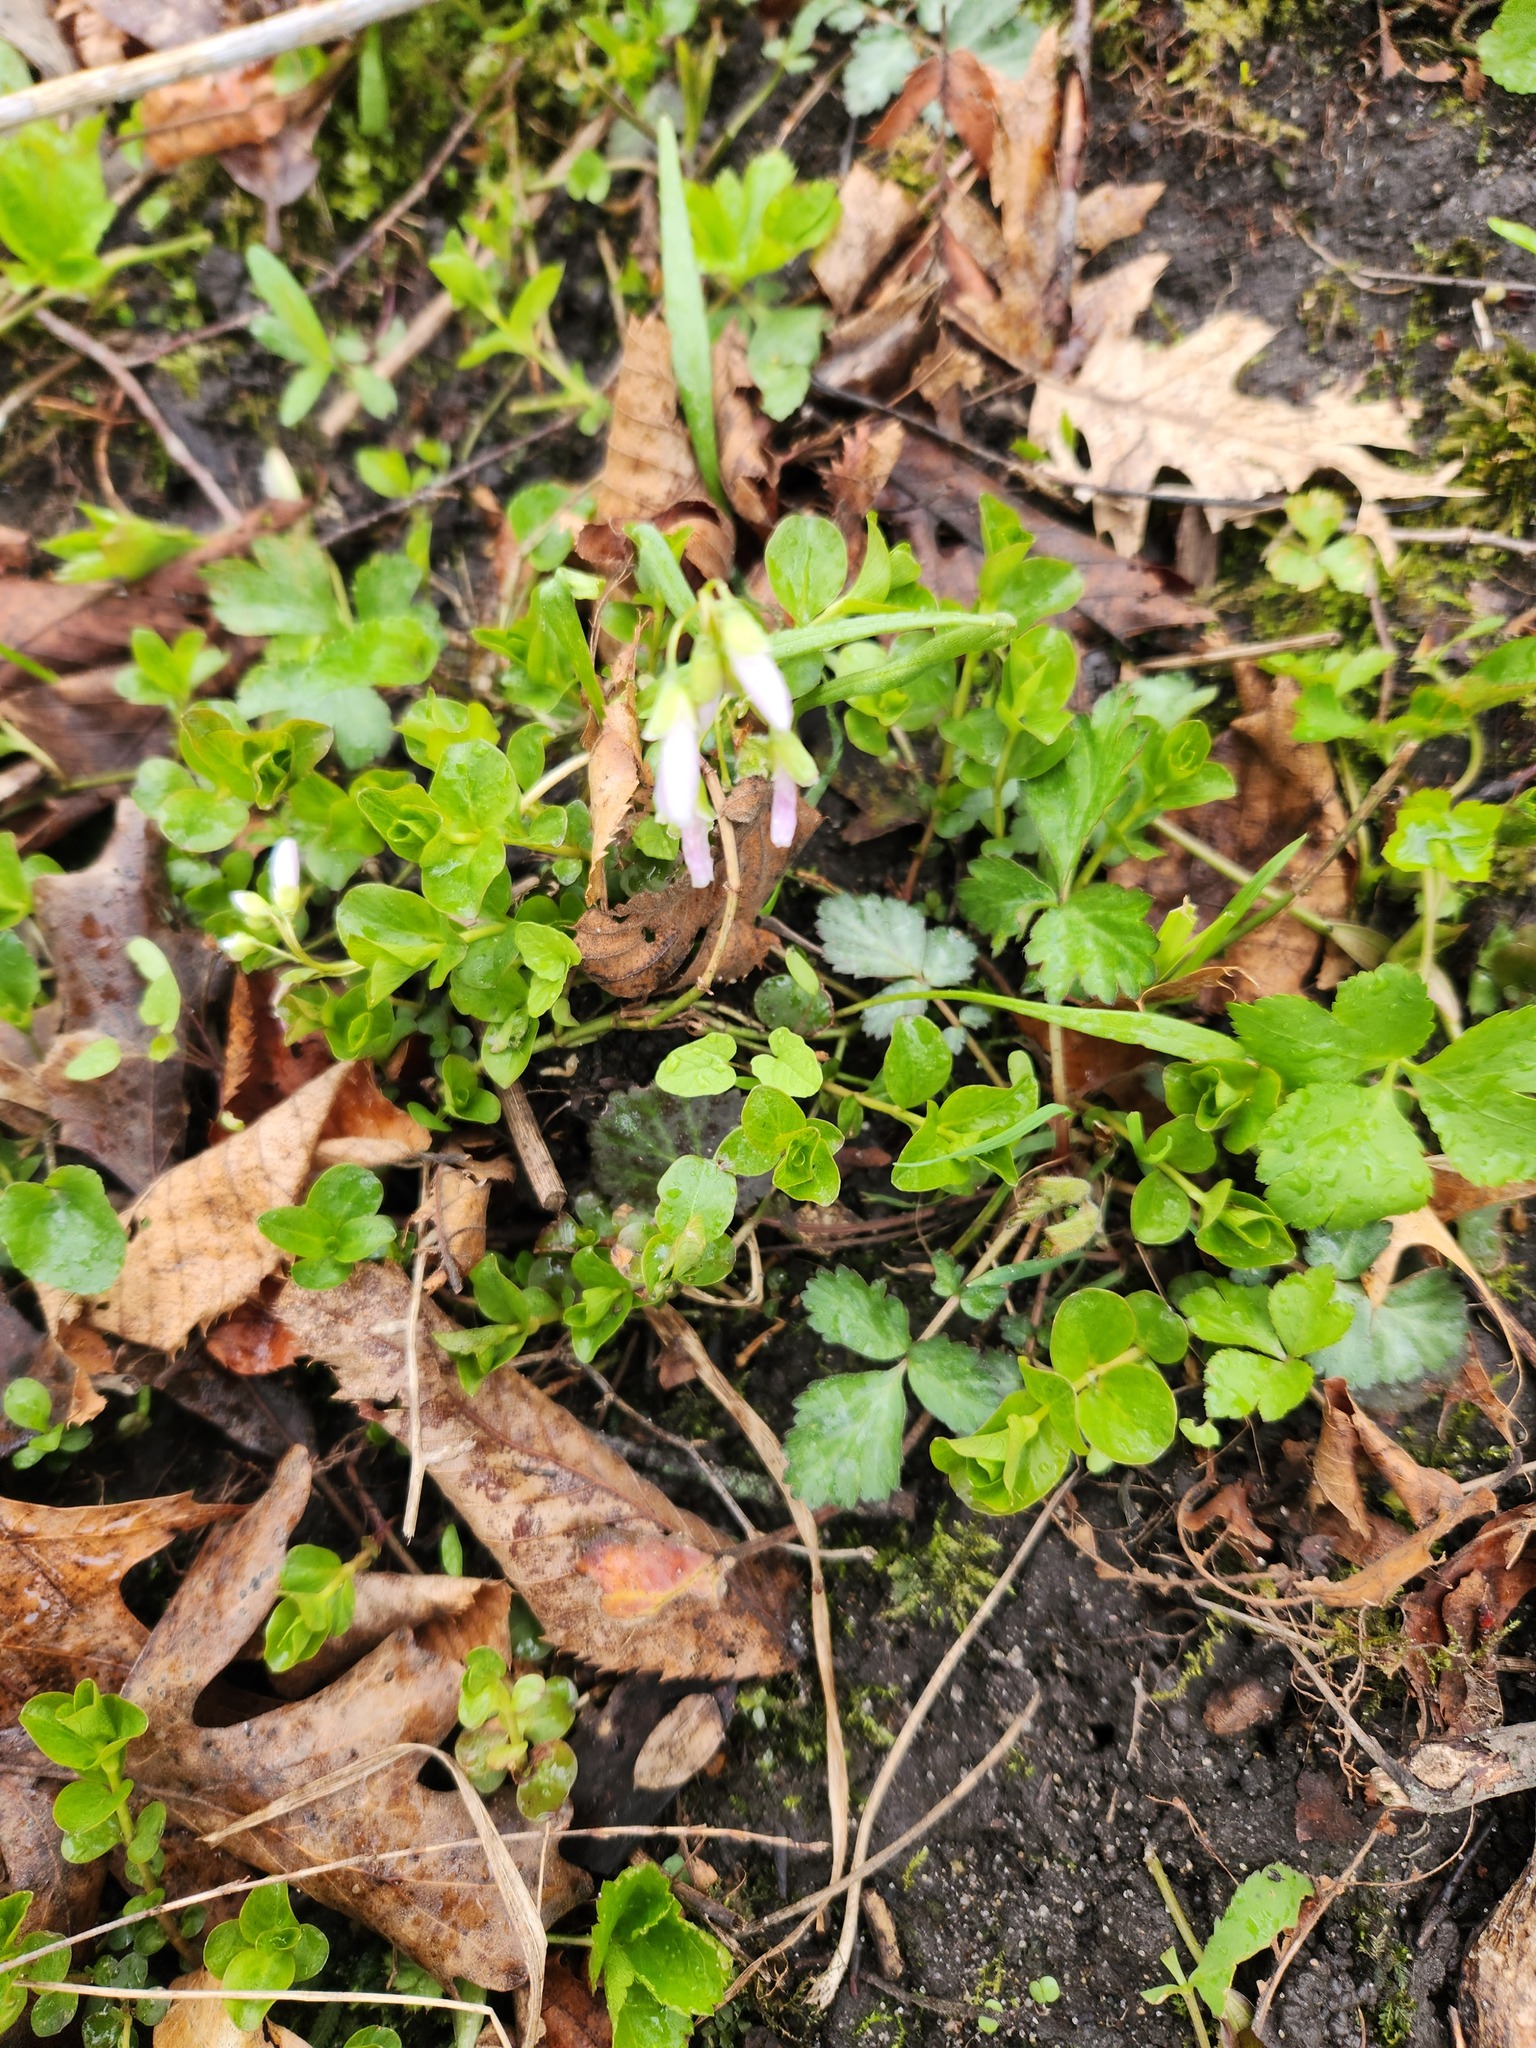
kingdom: Plantae
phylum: Tracheophyta
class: Magnoliopsida
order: Caryophyllales
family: Montiaceae
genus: Claytonia
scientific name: Claytonia virginica
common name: Virginia springbeauty
